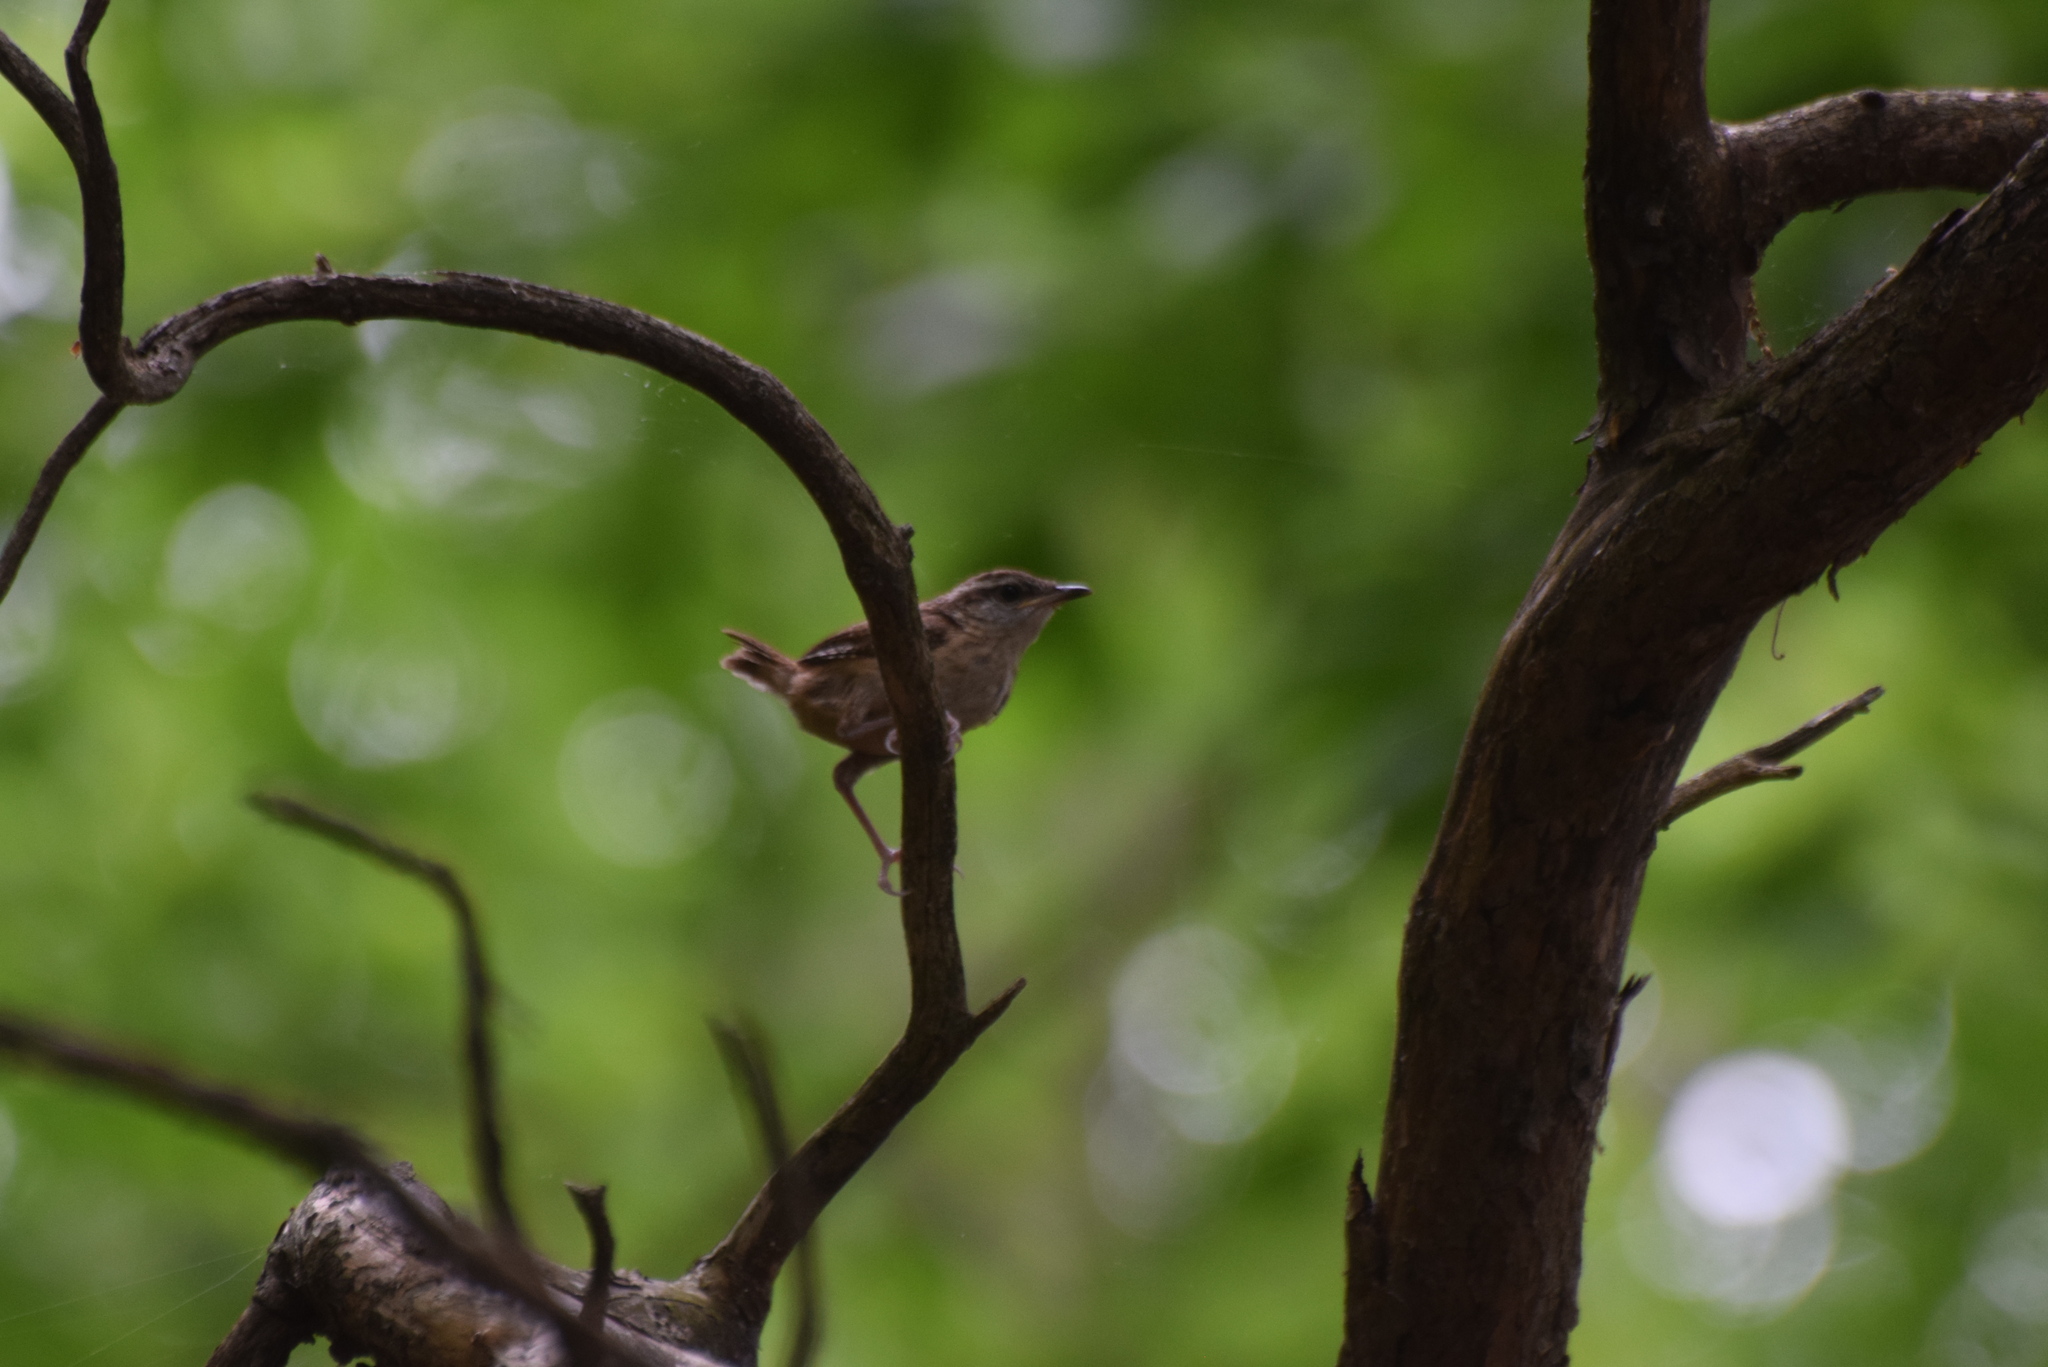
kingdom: Animalia
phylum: Chordata
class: Aves
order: Passeriformes
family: Troglodytidae
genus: Thryothorus
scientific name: Thryothorus ludovicianus
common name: Carolina wren
